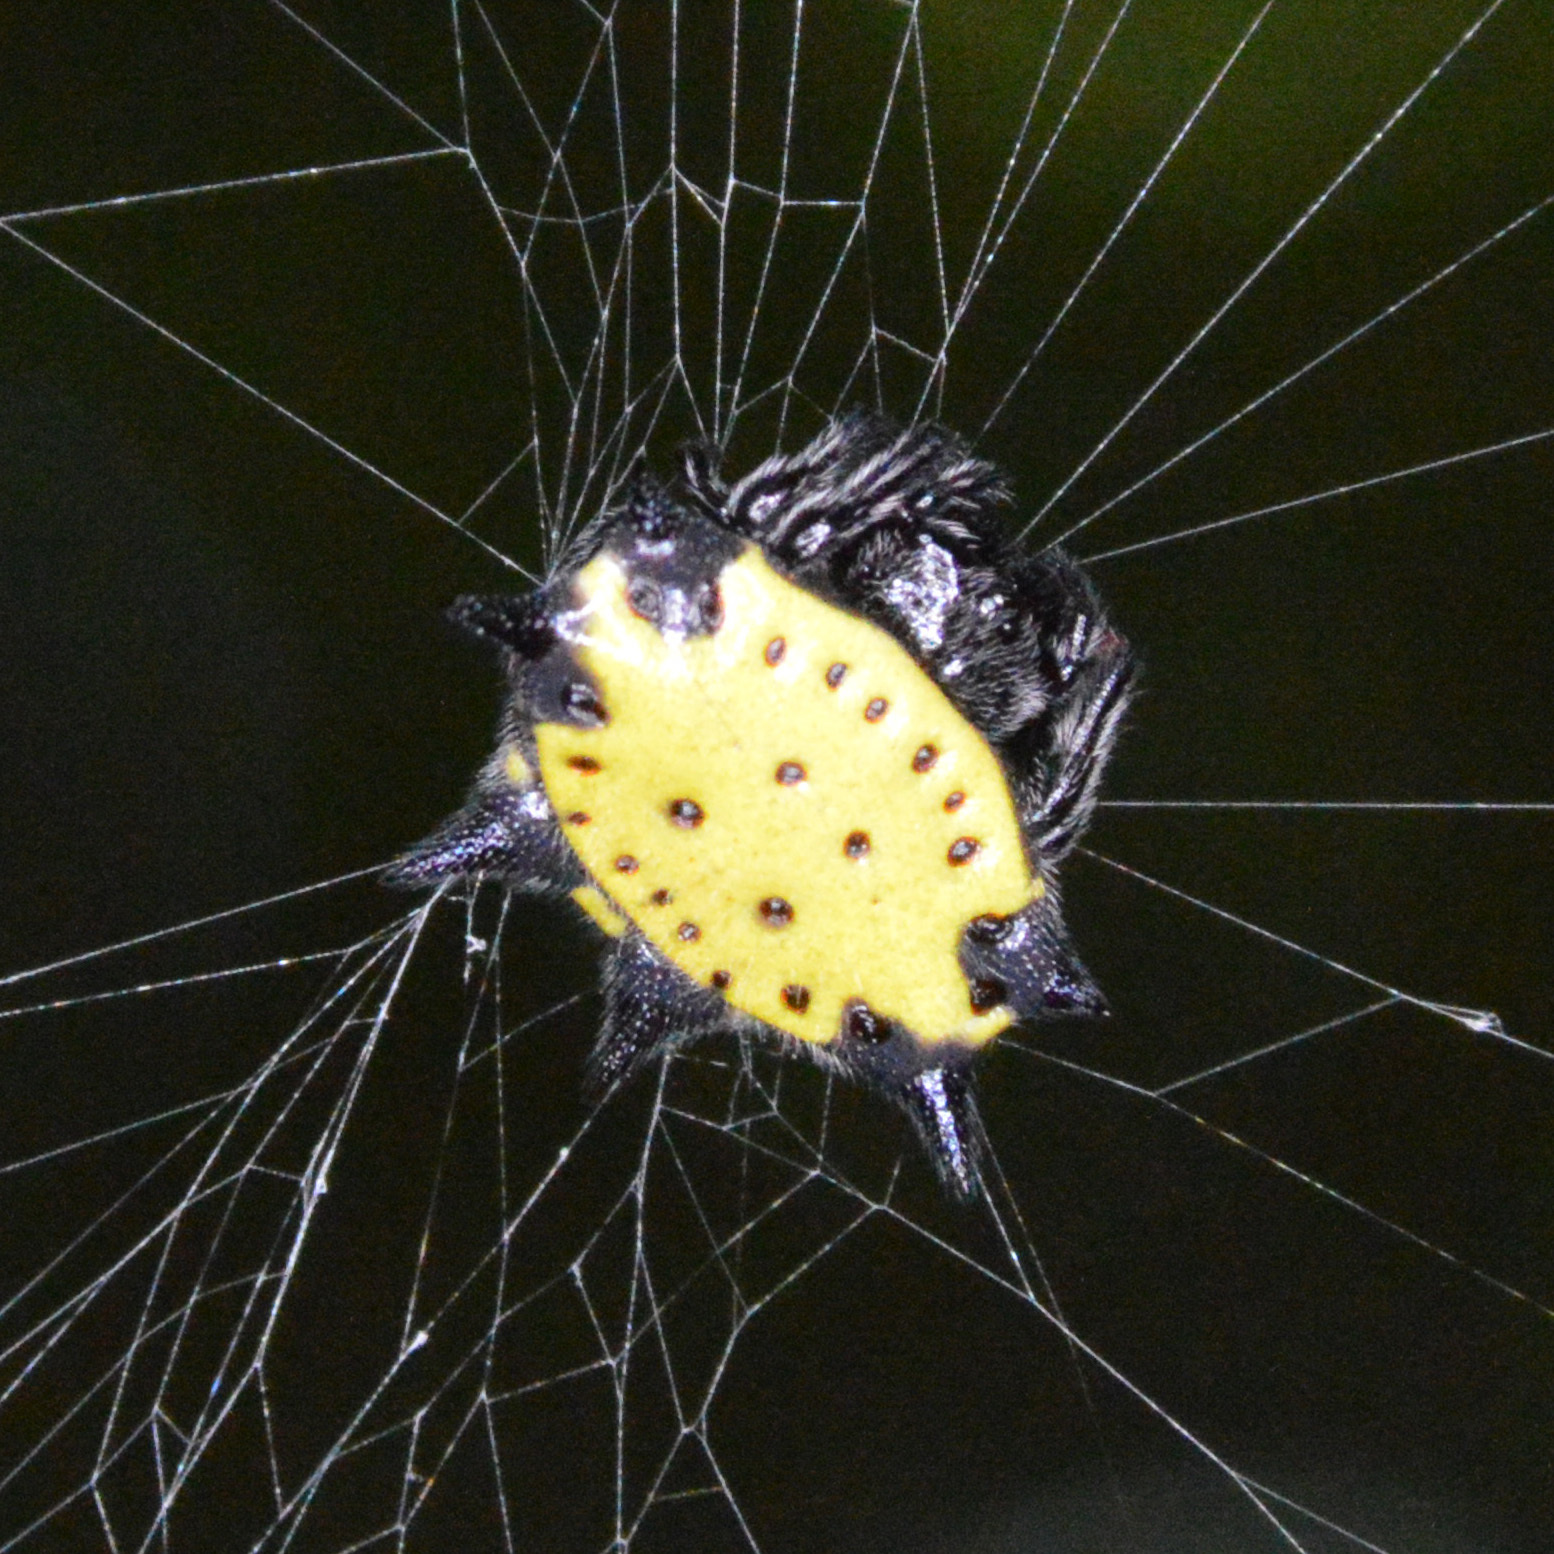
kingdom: Animalia
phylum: Arthropoda
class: Arachnida
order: Araneae
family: Araneidae
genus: Gasteracantha
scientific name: Gasteracantha cancriformis
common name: Orb weavers
